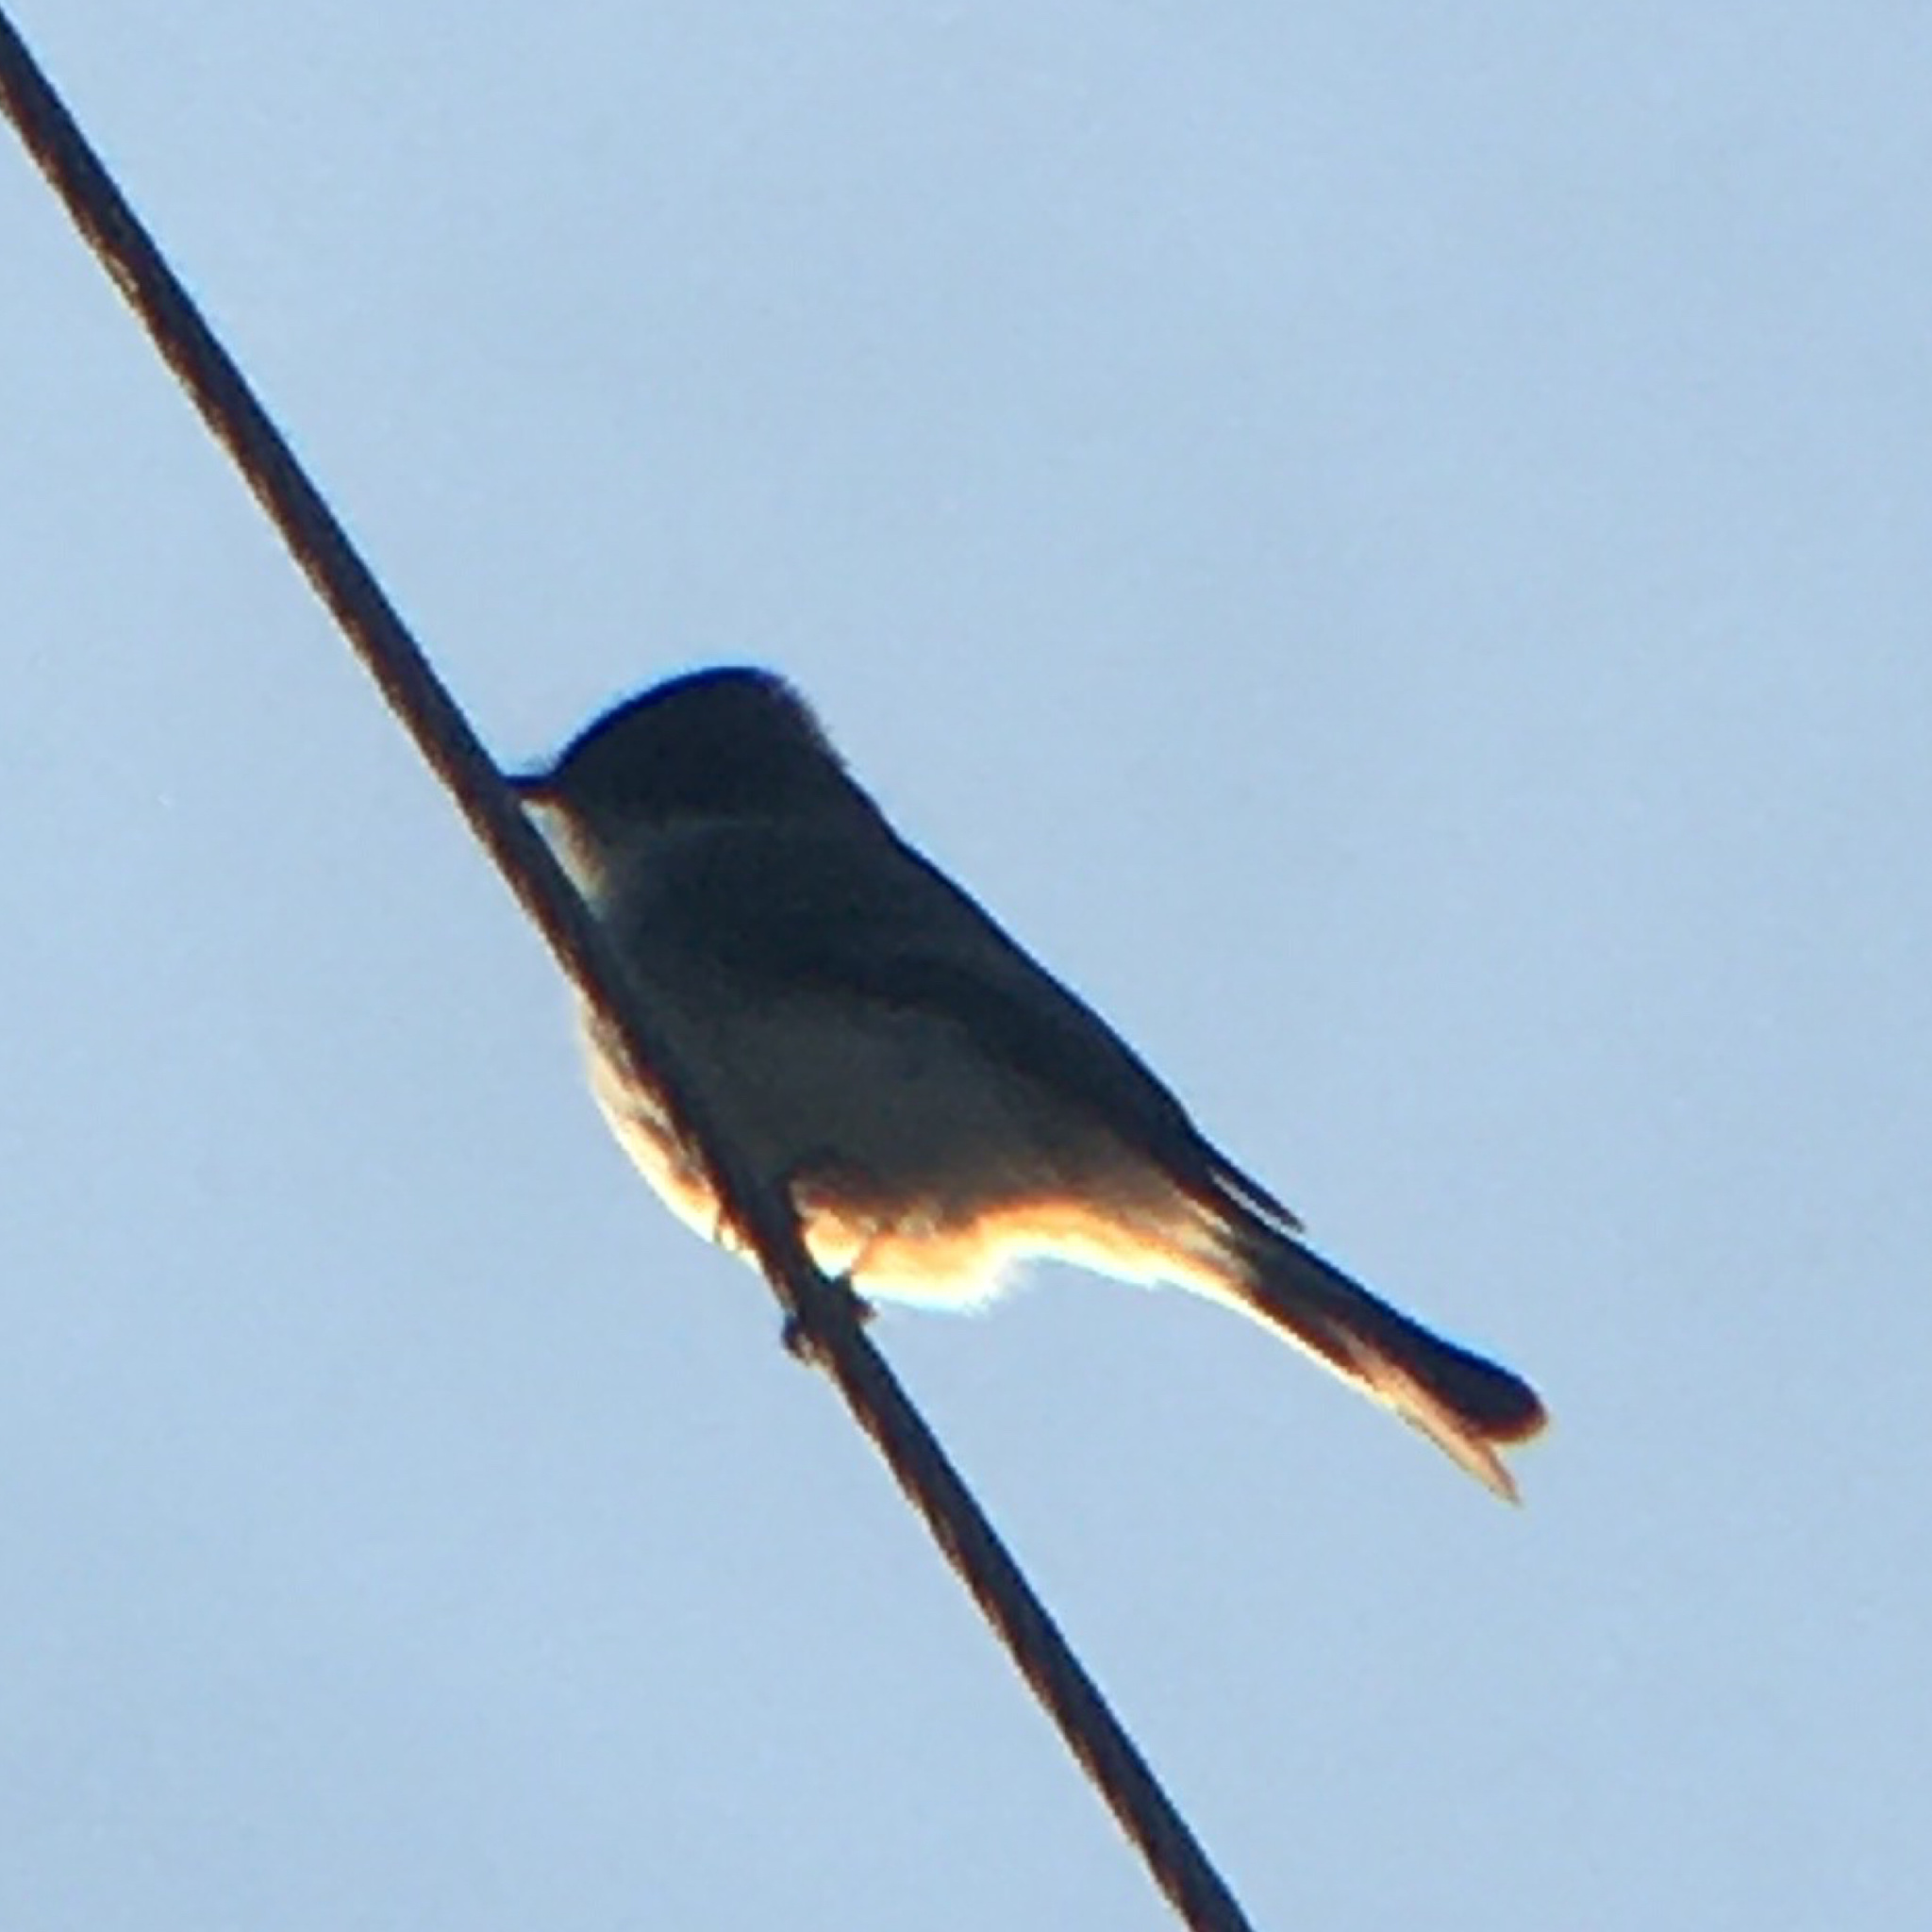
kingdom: Animalia
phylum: Chordata
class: Aves
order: Passeriformes
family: Tyrannidae
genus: Sayornis
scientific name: Sayornis phoebe
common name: Eastern phoebe
